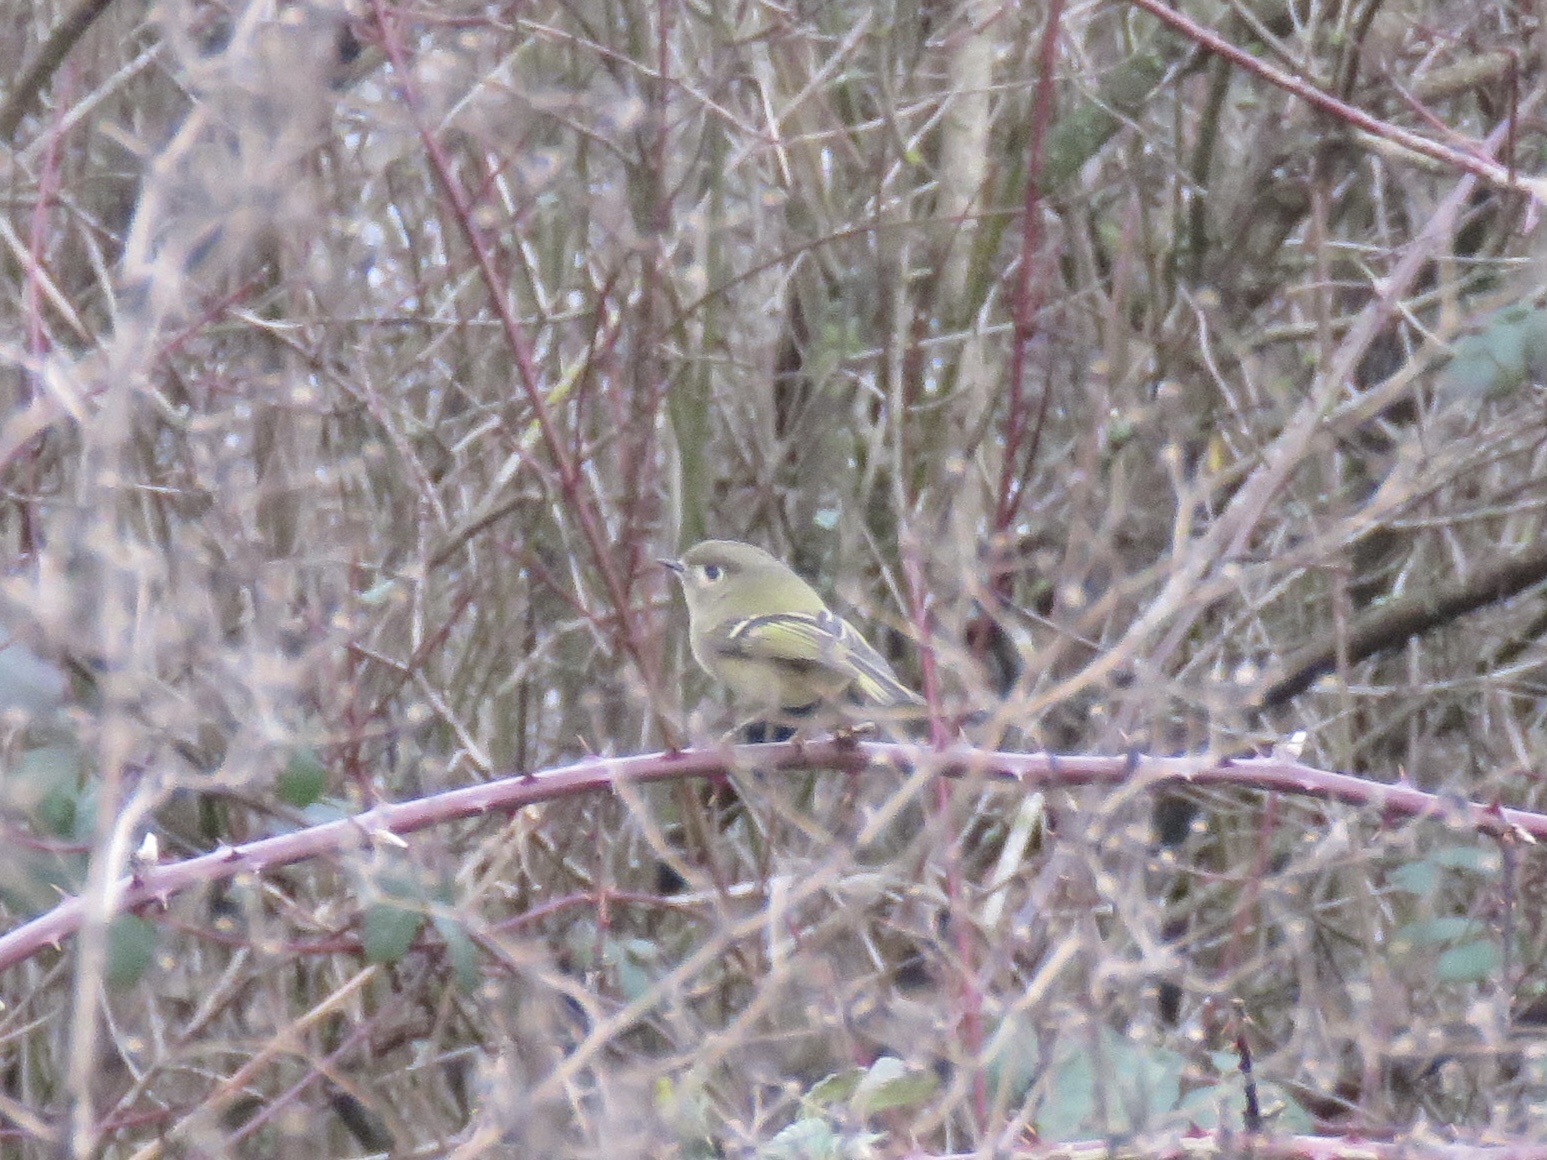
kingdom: Animalia
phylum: Chordata
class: Aves
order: Passeriformes
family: Regulidae
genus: Regulus
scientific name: Regulus calendula
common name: Ruby-crowned kinglet
